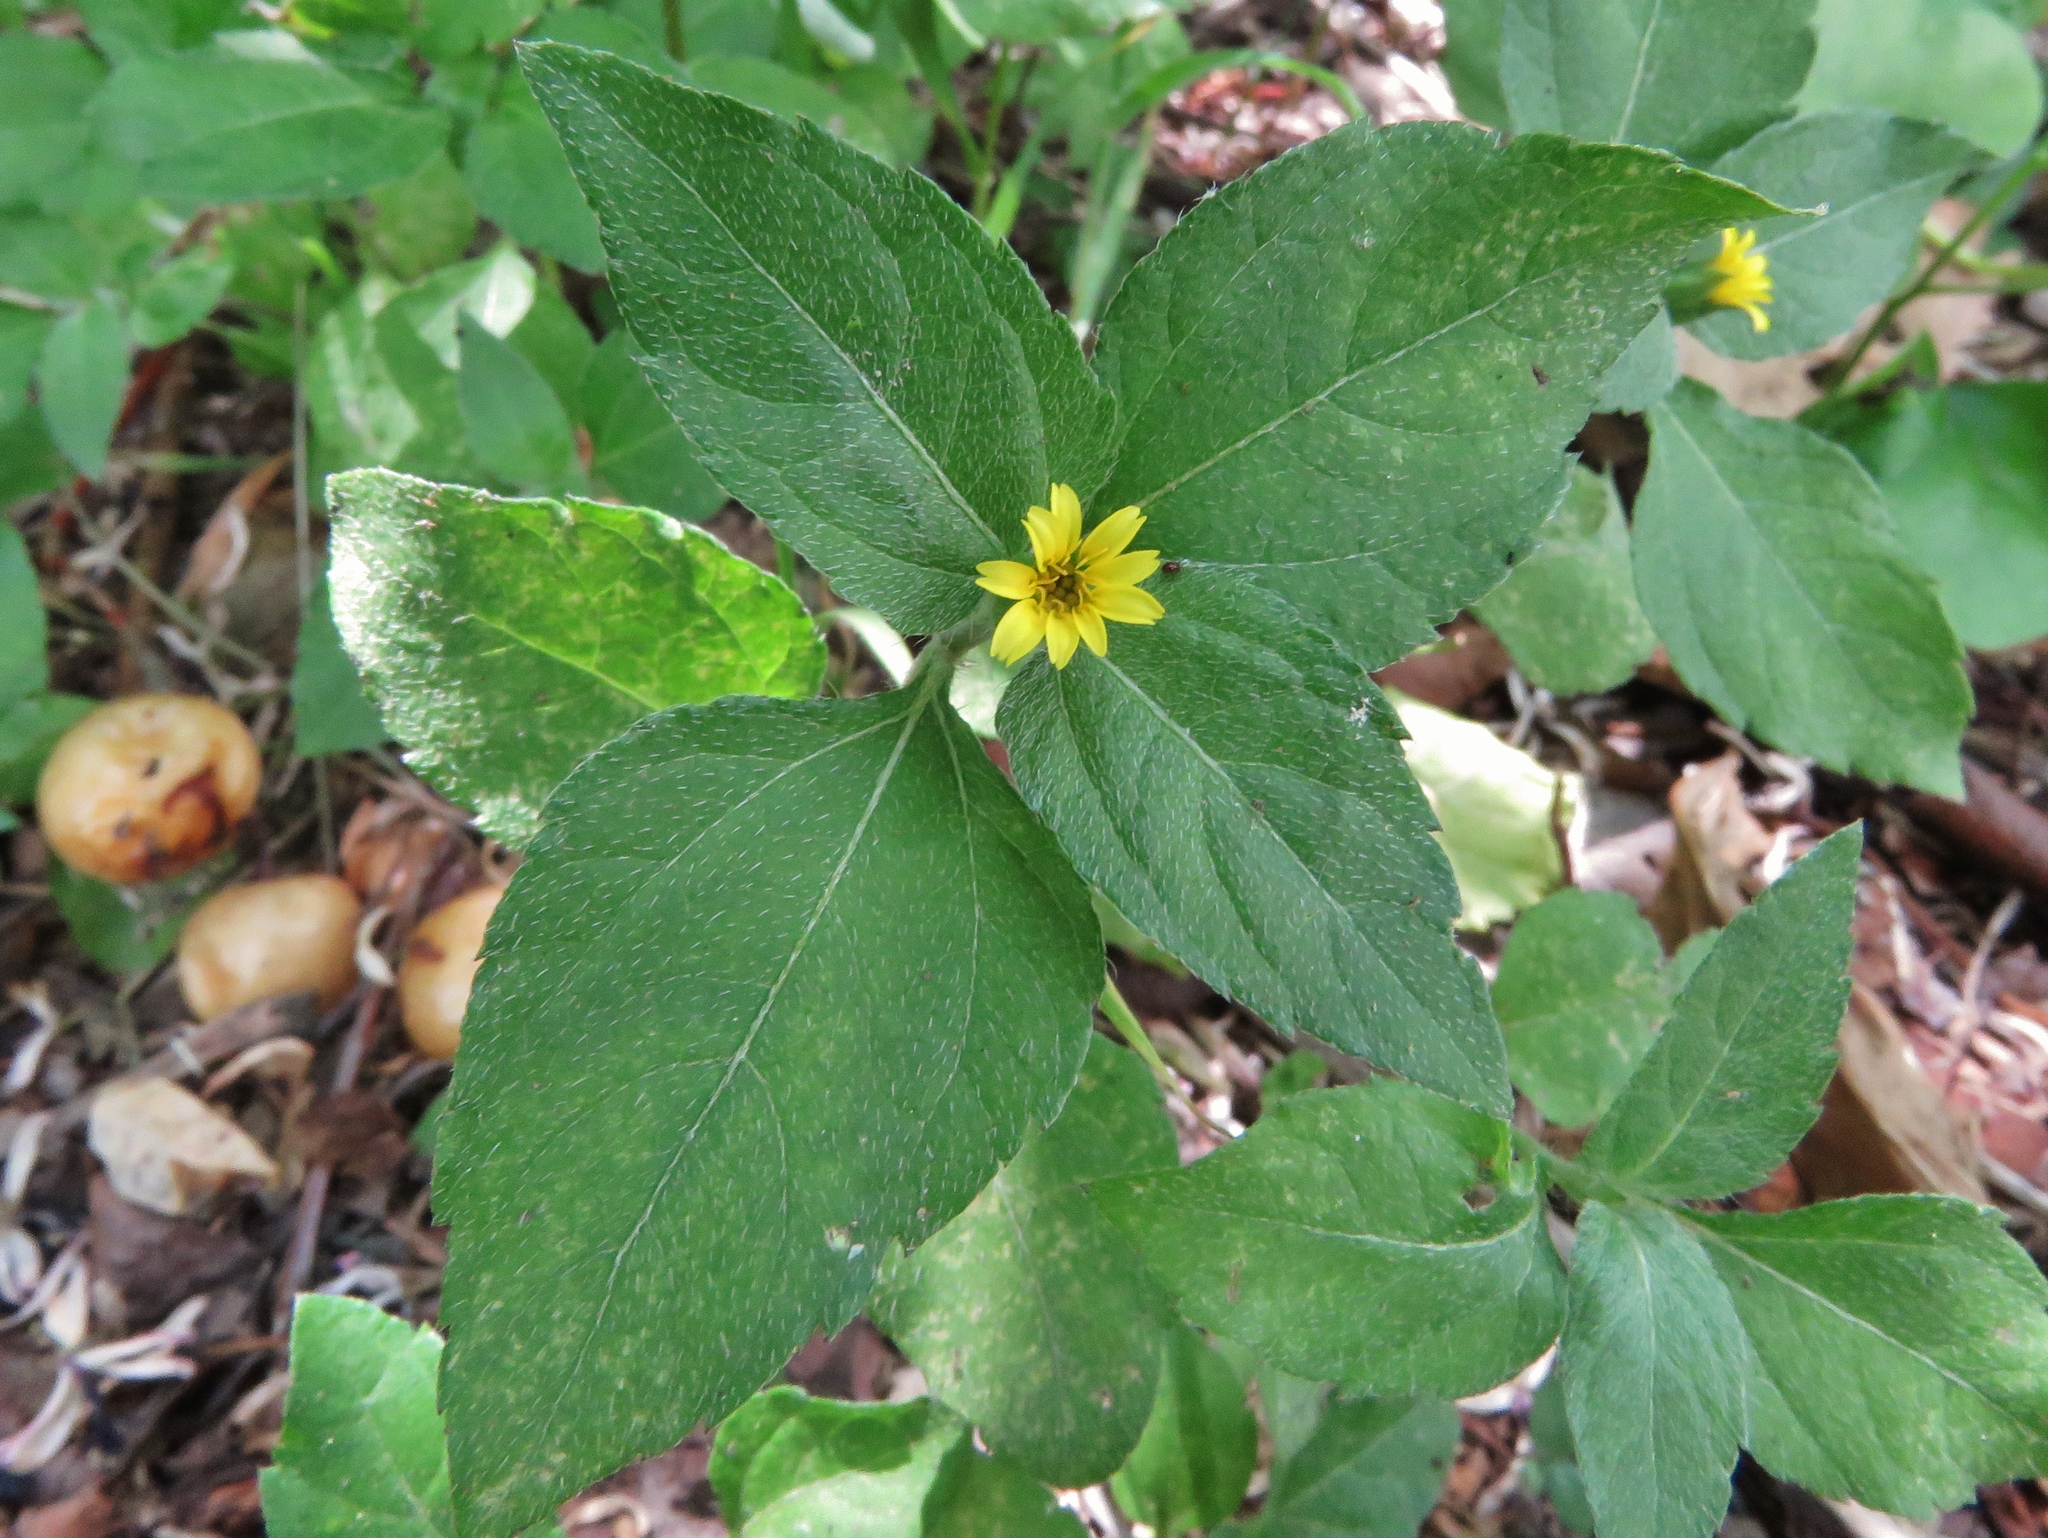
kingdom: Plantae
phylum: Tracheophyta
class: Magnoliopsida
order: Asterales
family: Asteraceae
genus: Calyptocarpus
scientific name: Calyptocarpus vialis
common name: Straggler daisy
